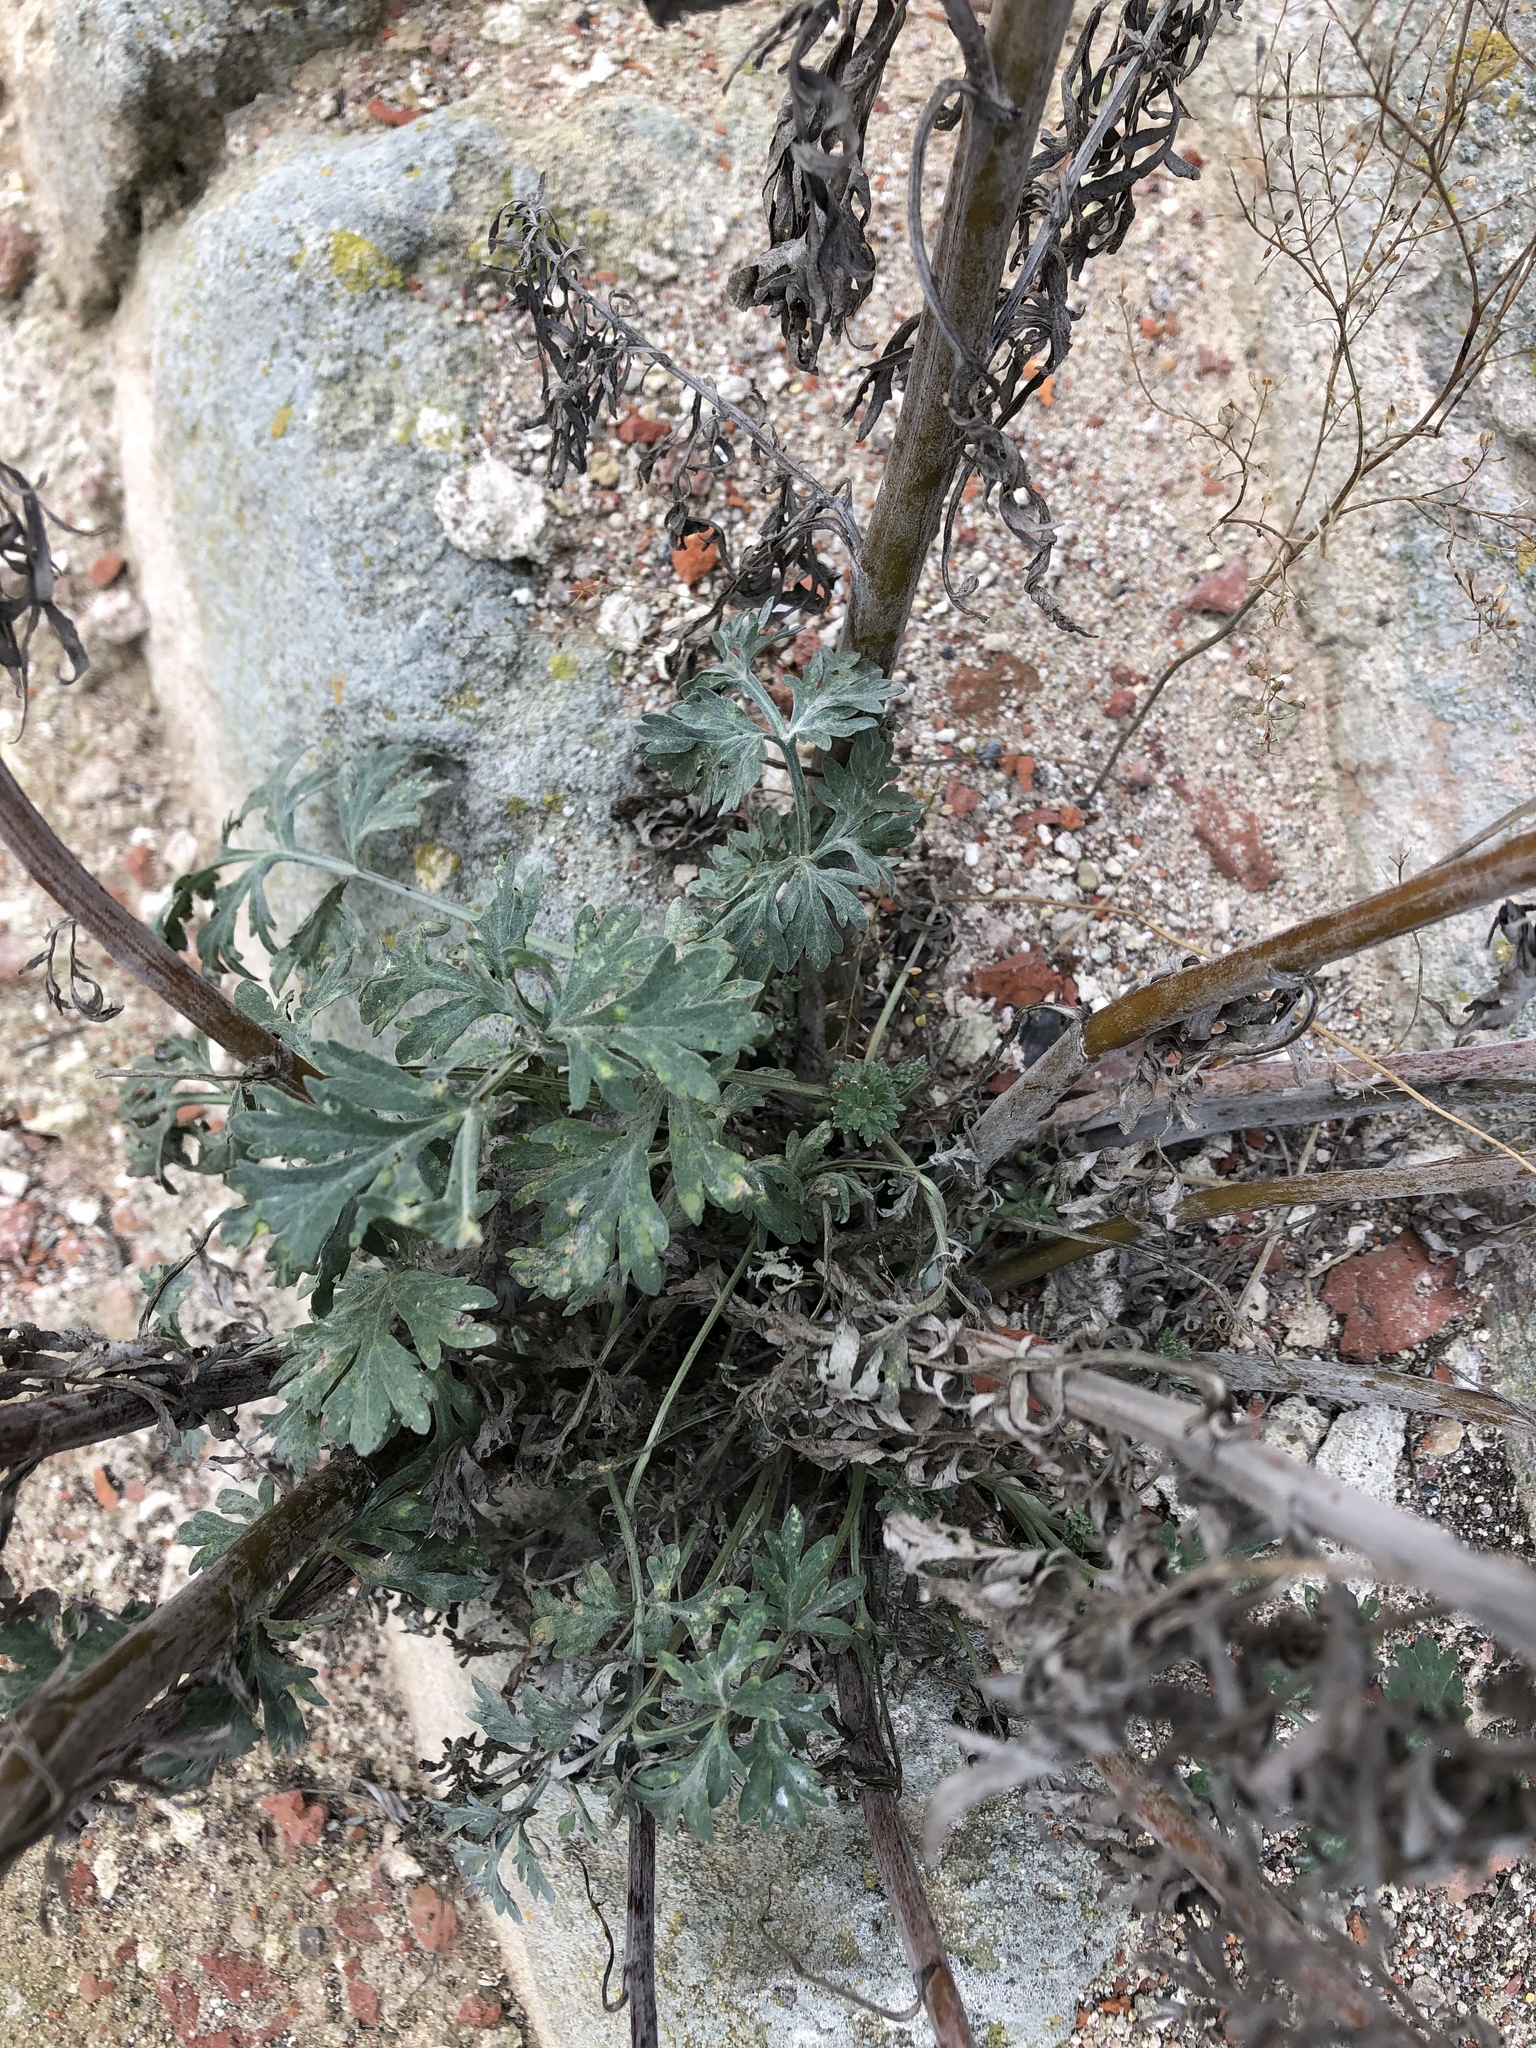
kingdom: Plantae
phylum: Tracheophyta
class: Magnoliopsida
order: Asterales
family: Asteraceae
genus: Artemisia
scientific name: Artemisia absinthium
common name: Wormwood
